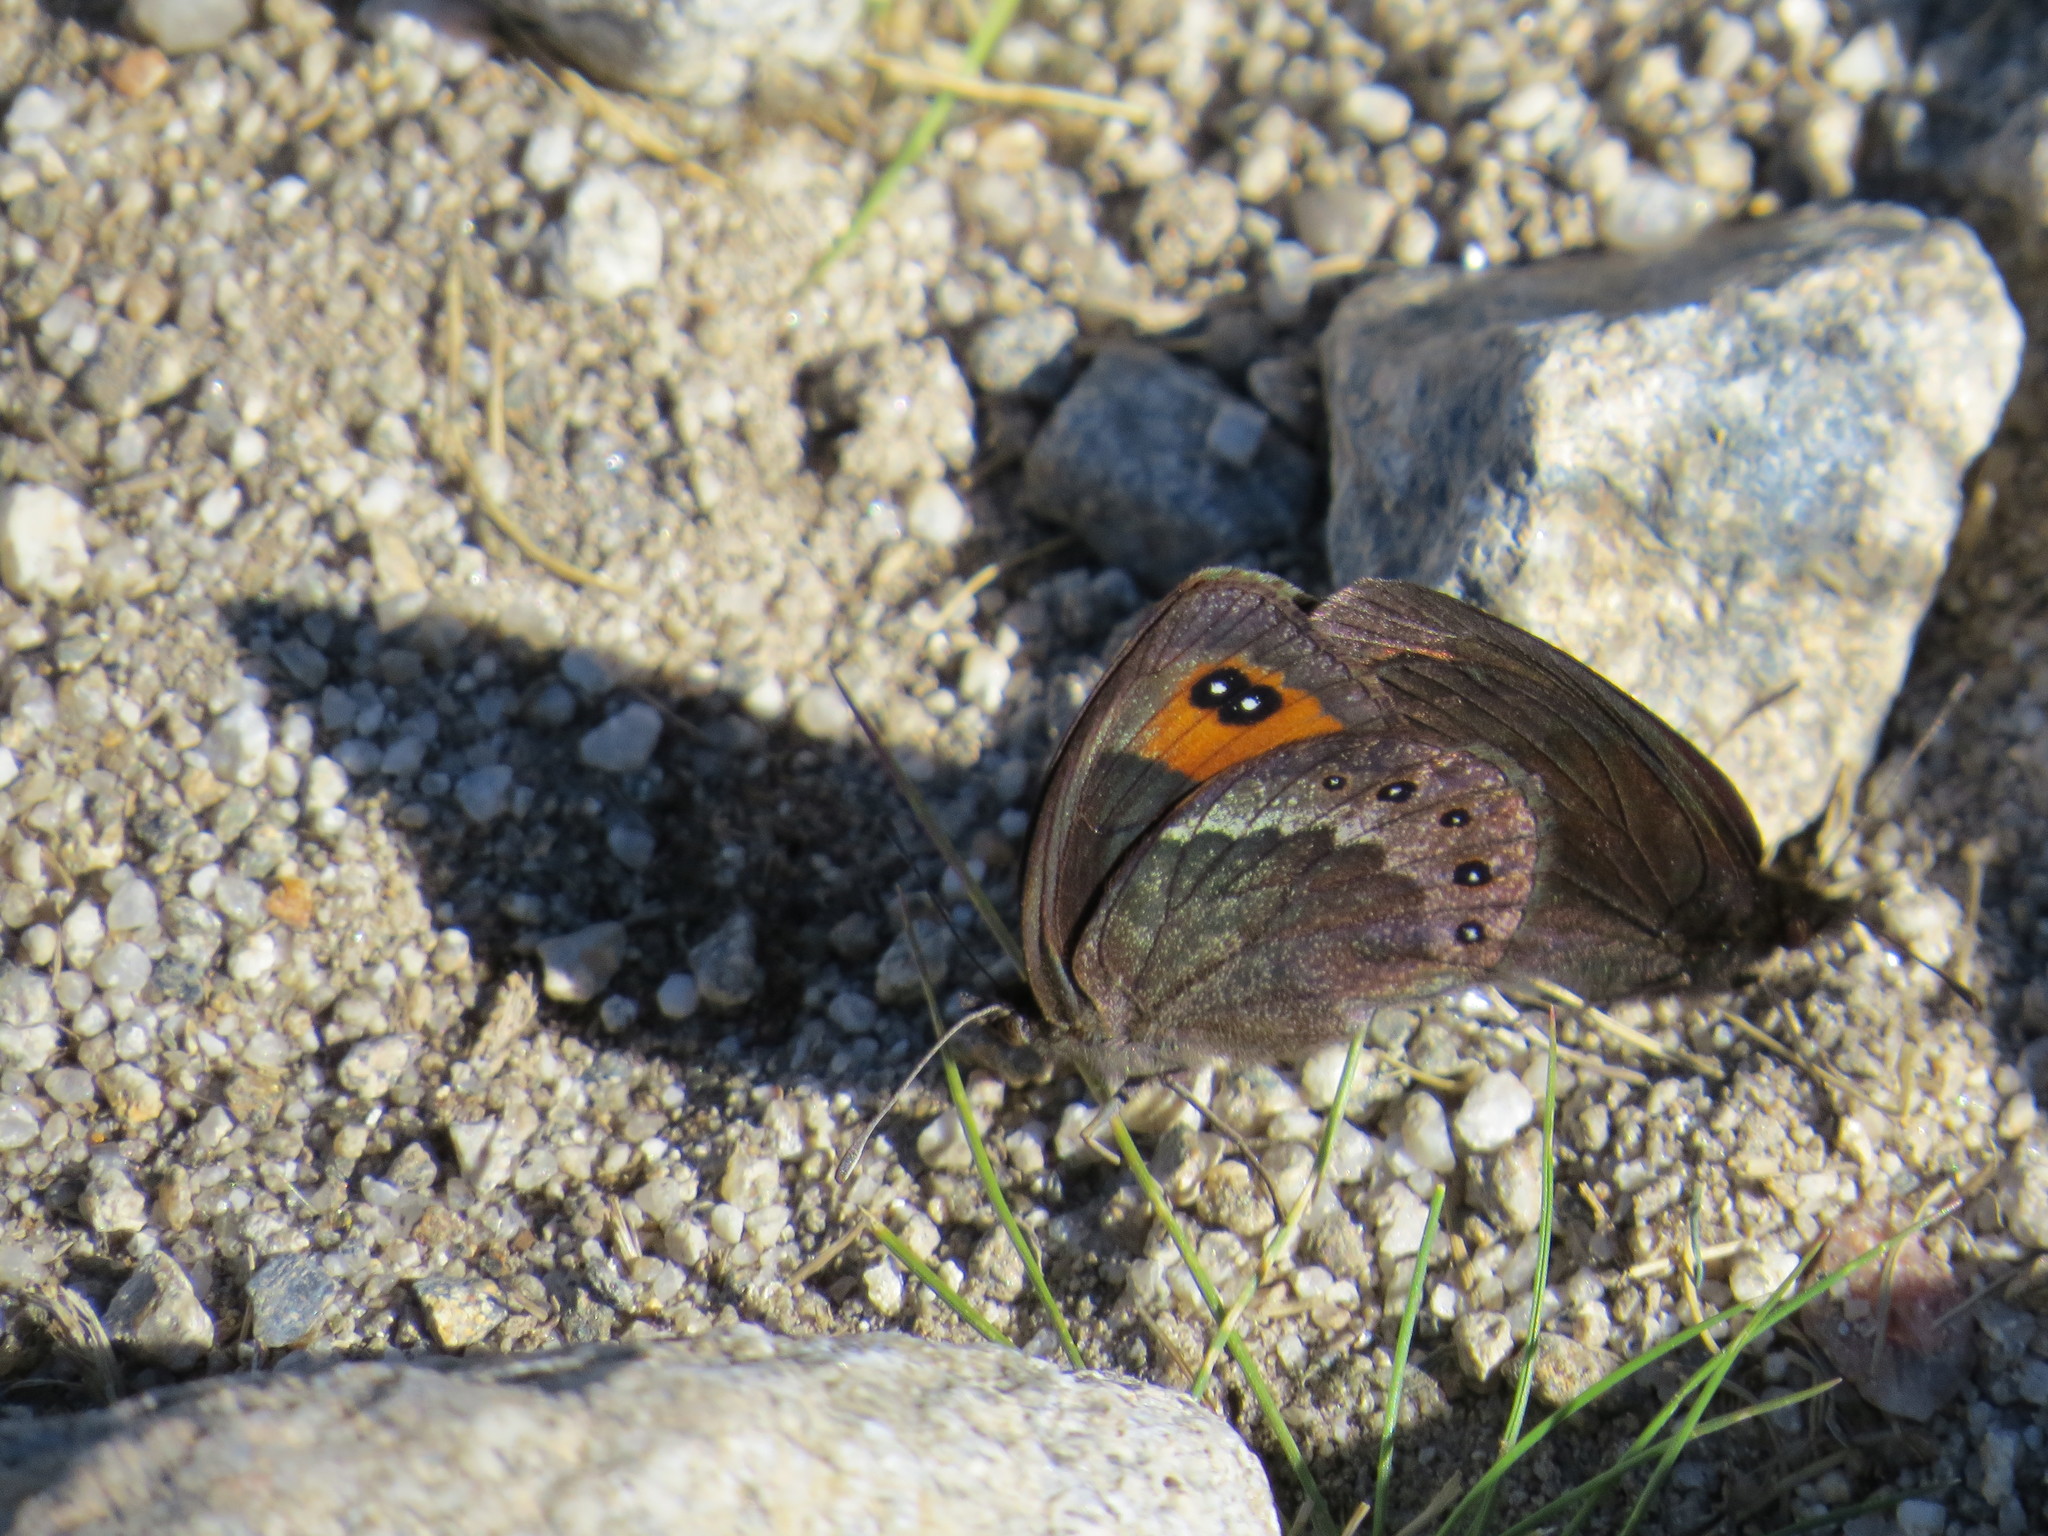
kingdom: Animalia
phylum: Arthropoda
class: Insecta
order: Lepidoptera
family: Nymphalidae
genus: Erebia
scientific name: Erebia meolans
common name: Piedmont ringlet
